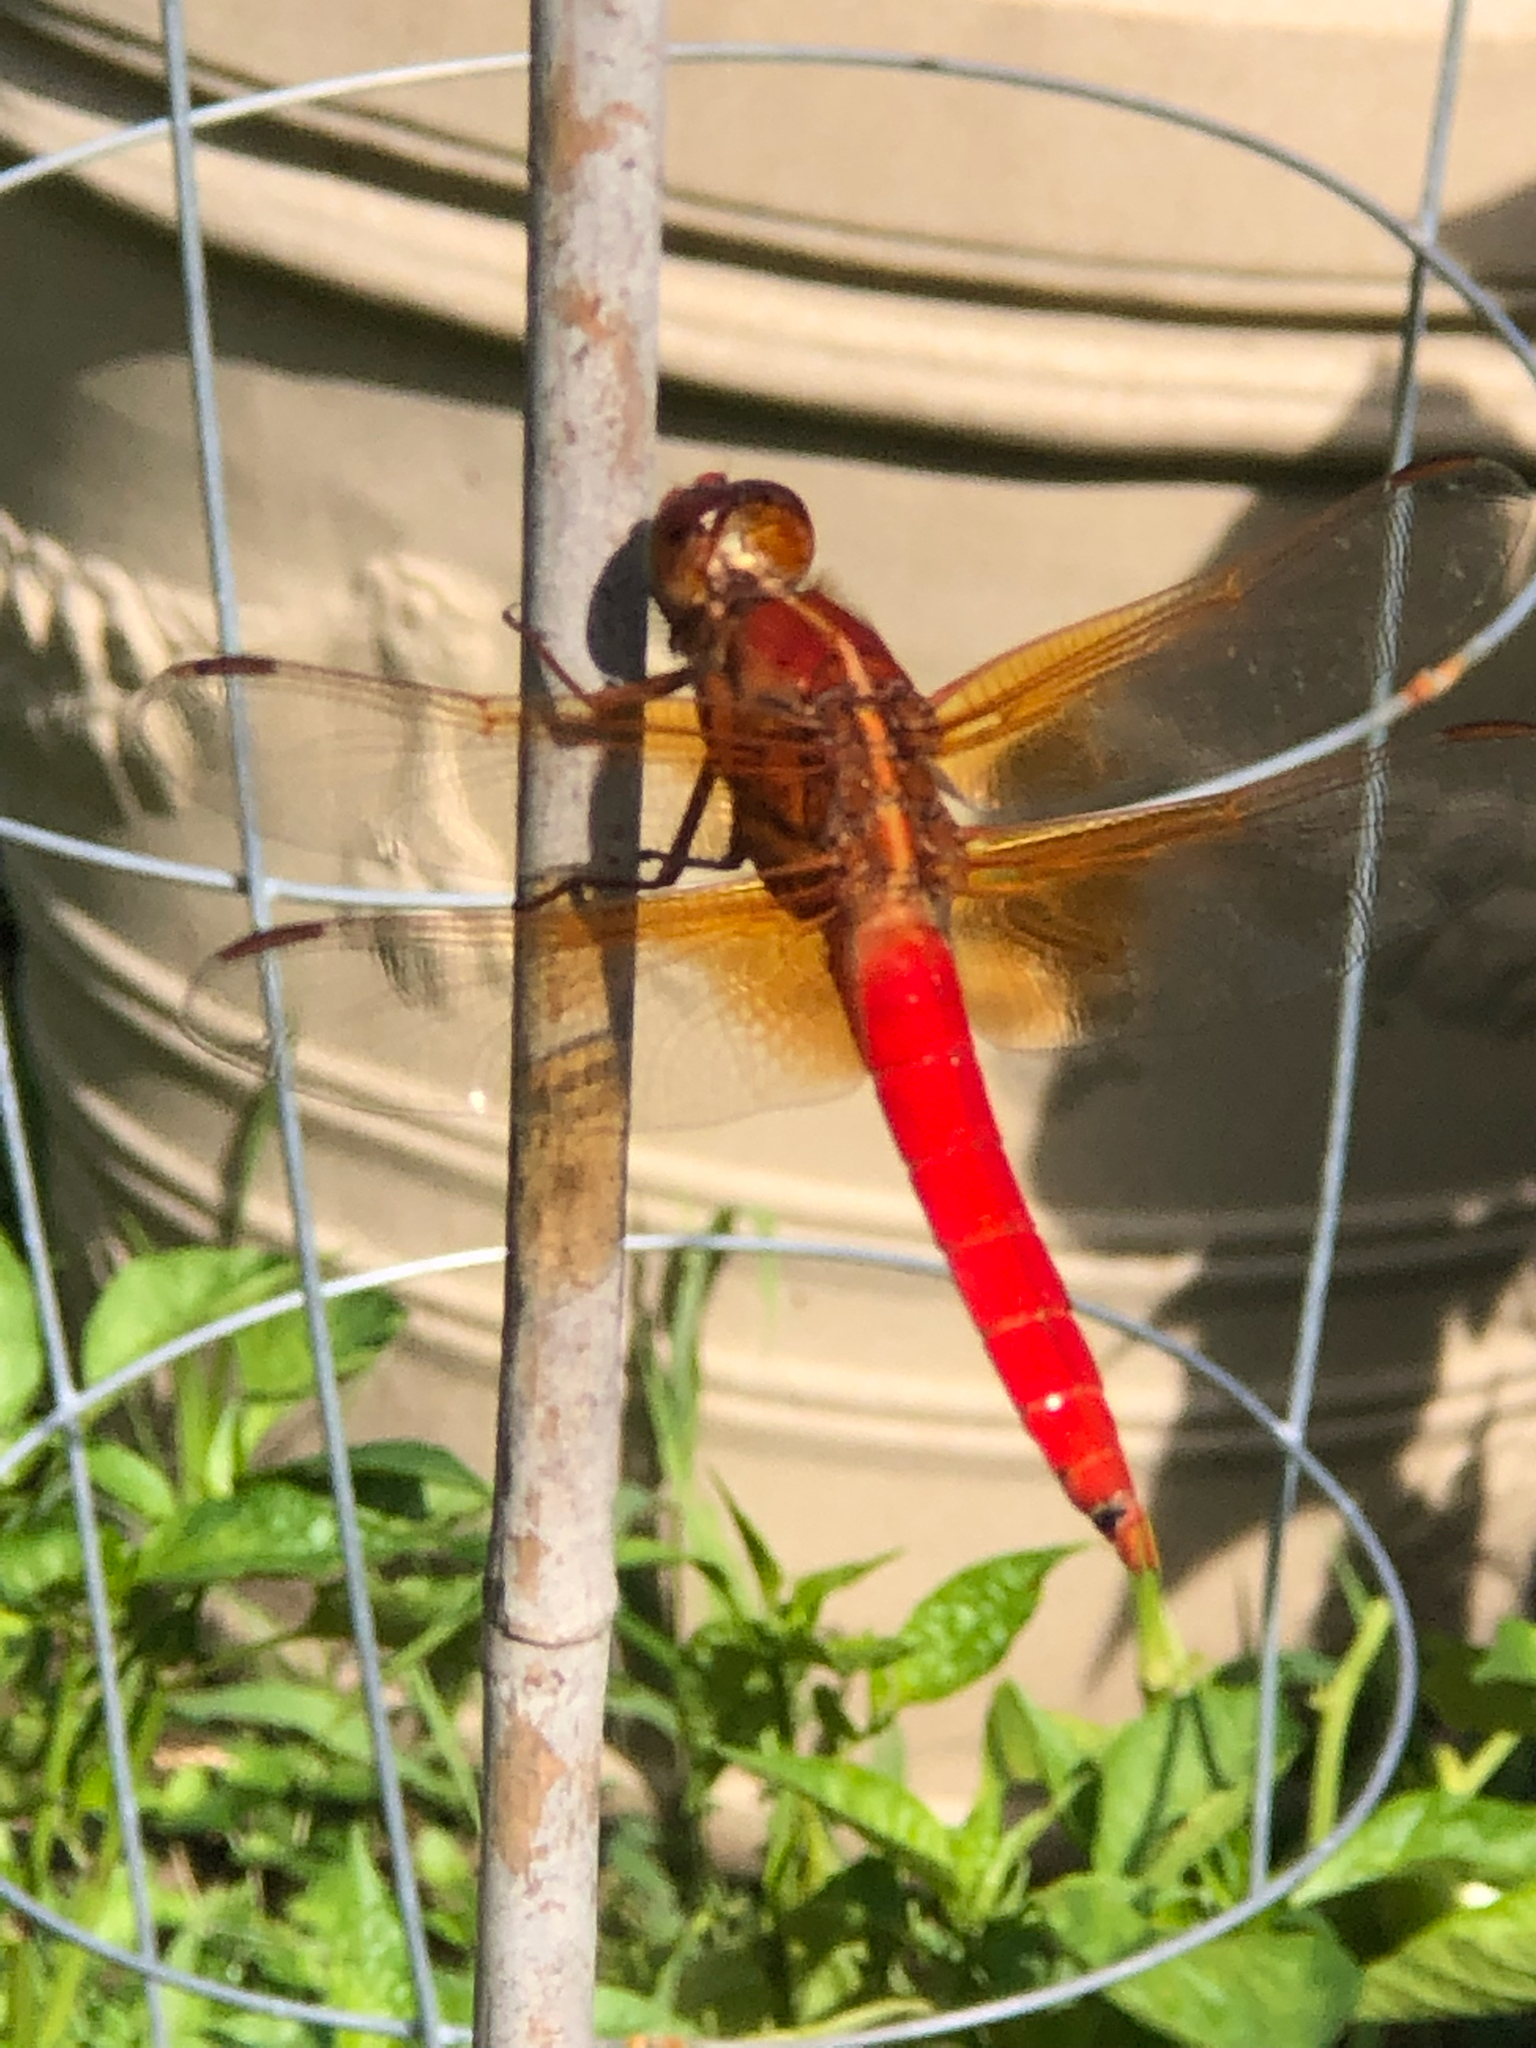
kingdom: Animalia
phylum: Arthropoda
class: Insecta
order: Odonata
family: Libellulidae
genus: Libellula
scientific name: Libellula croceipennis
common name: Neon skimmer
